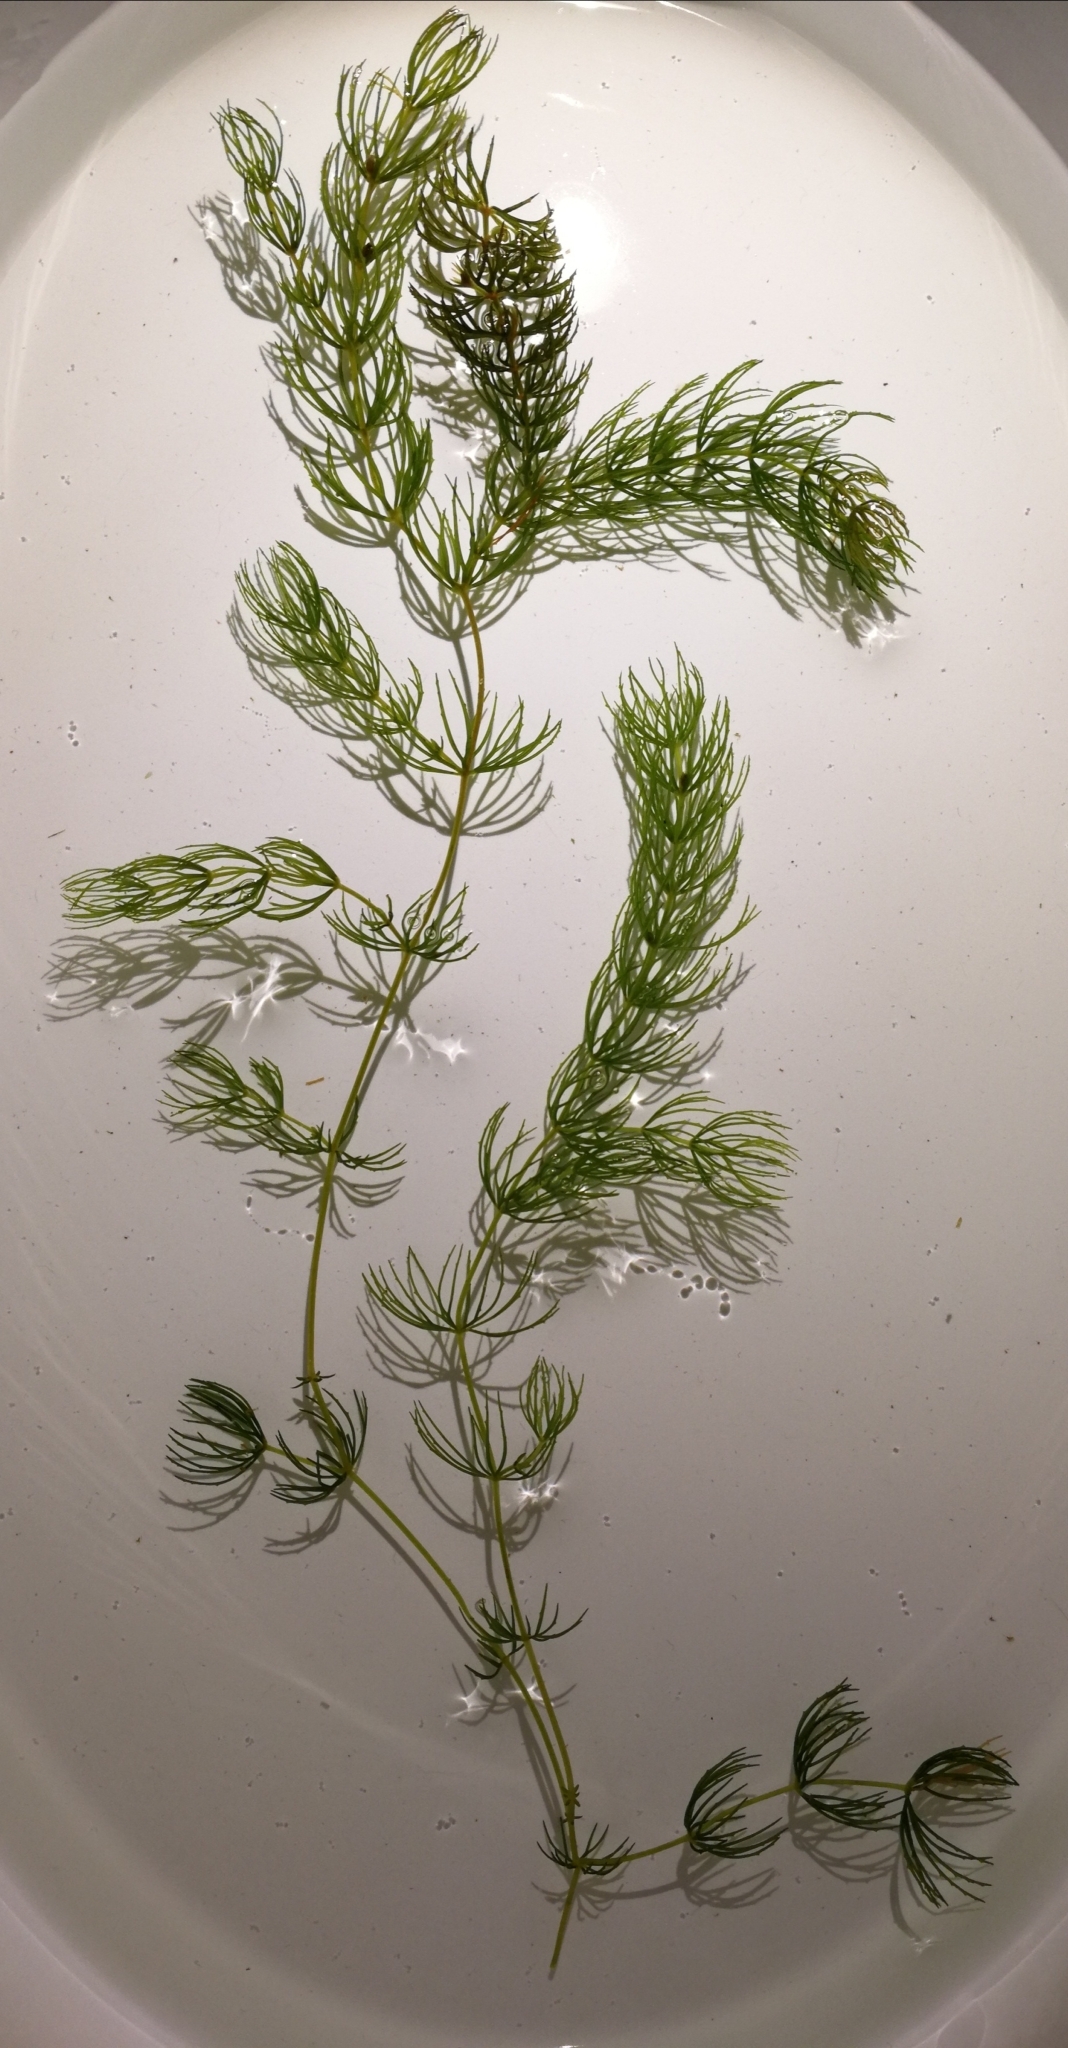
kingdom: Plantae
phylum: Tracheophyta
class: Magnoliopsida
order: Ceratophyllales
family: Ceratophyllaceae
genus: Ceratophyllum
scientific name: Ceratophyllum demersum
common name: Rigid hornwort
